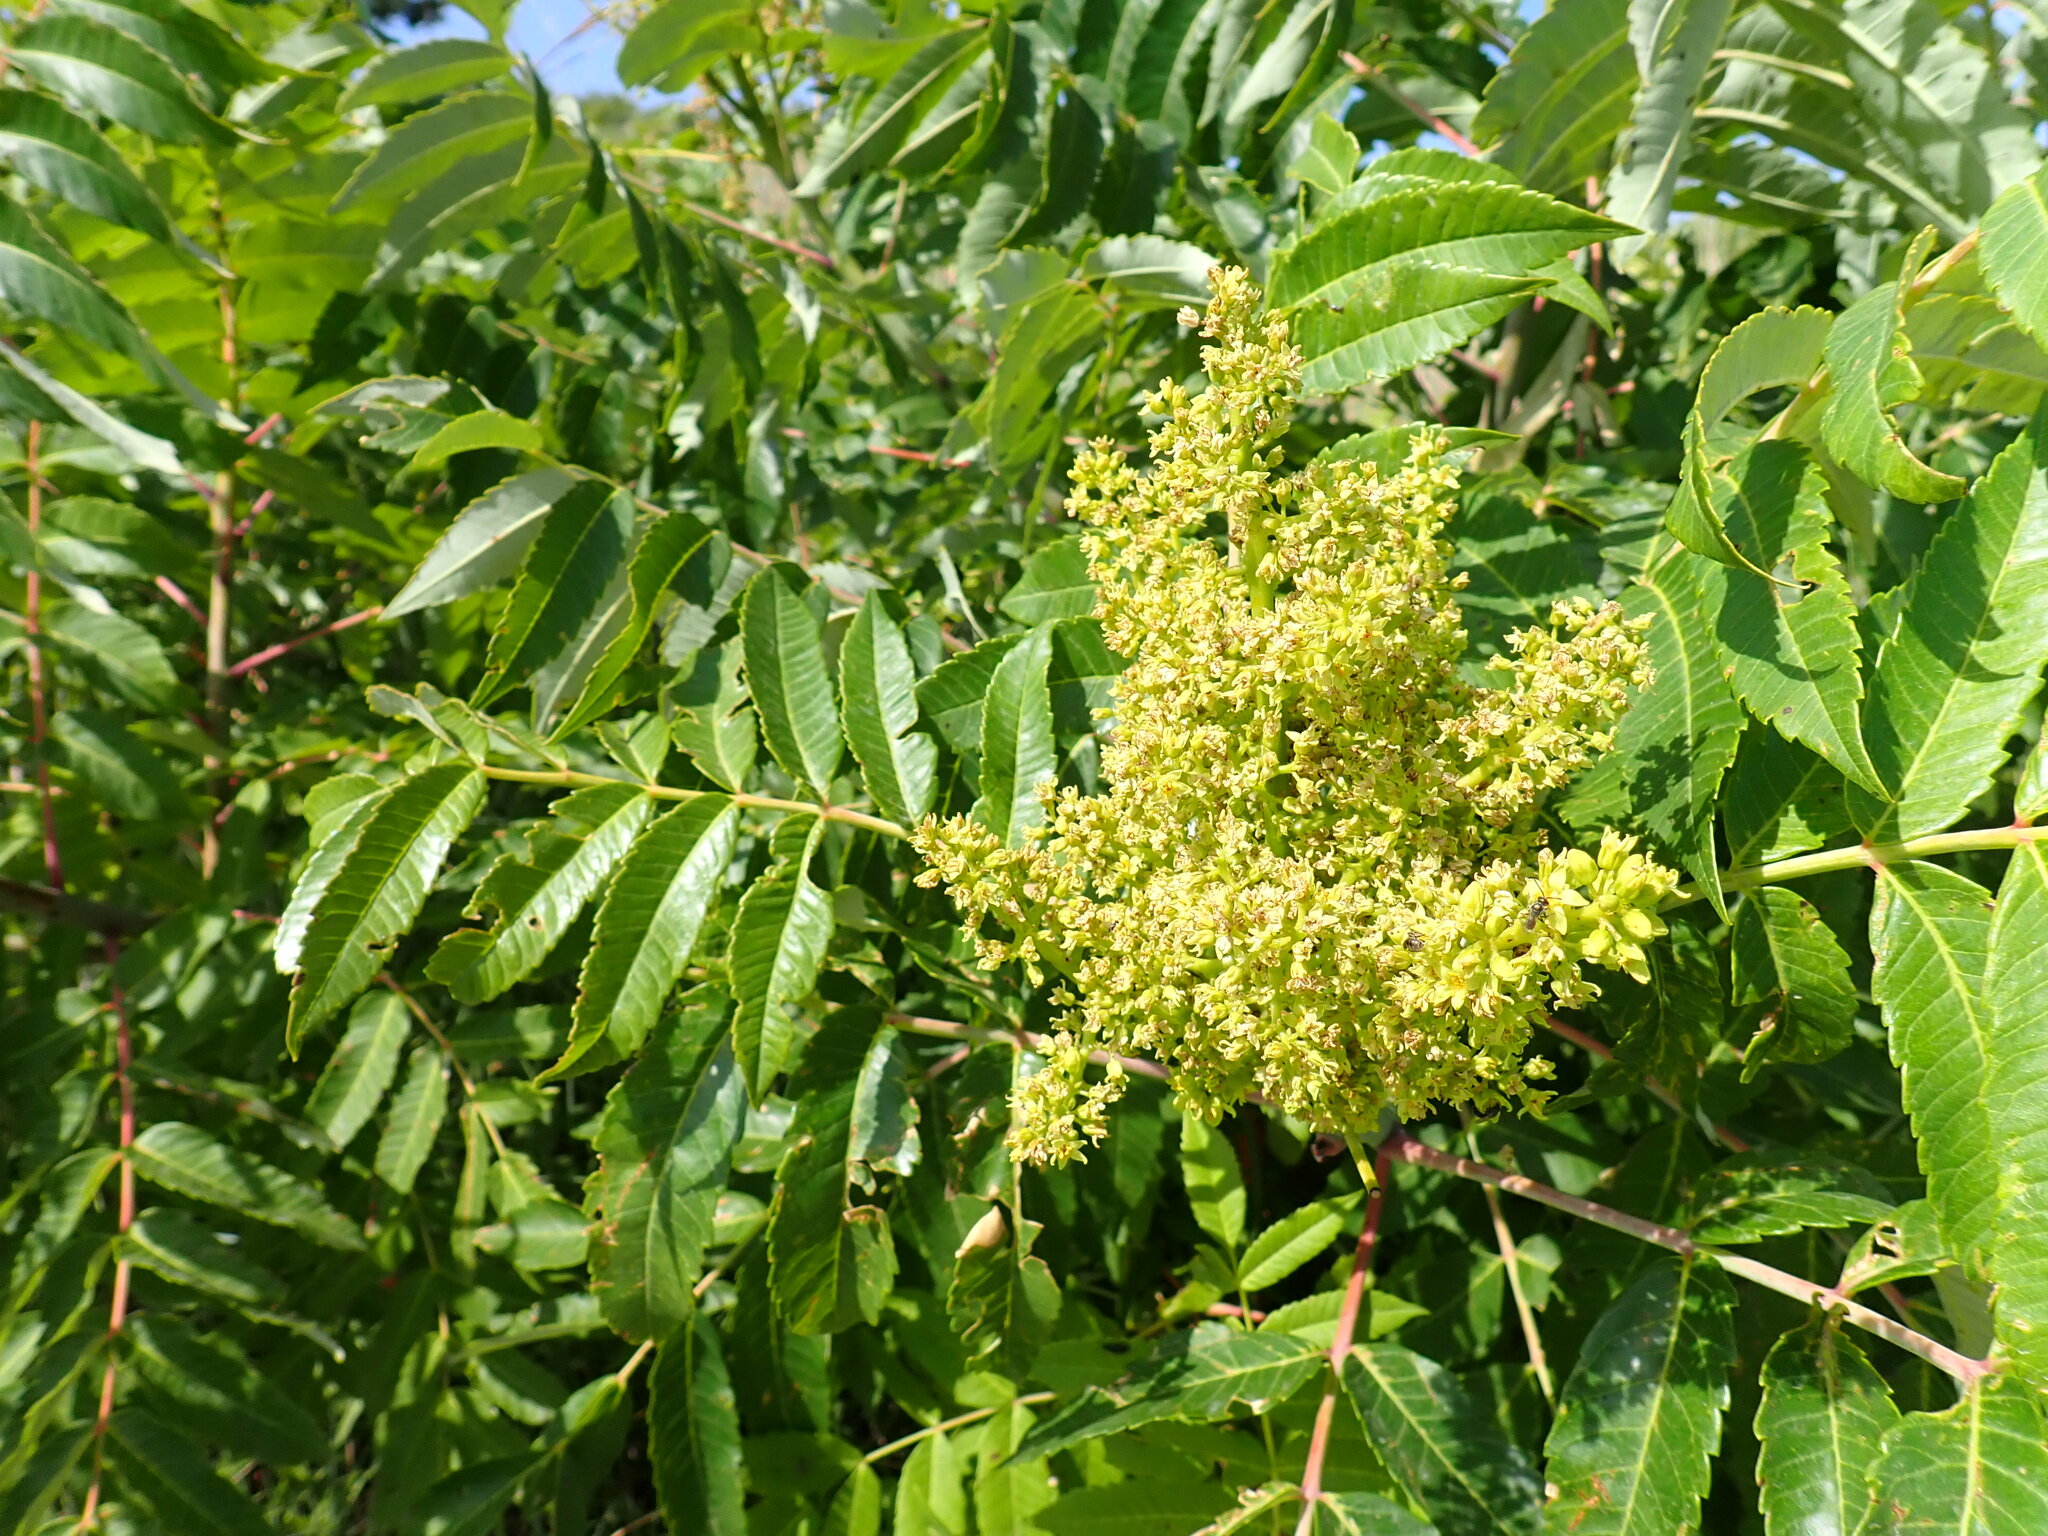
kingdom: Plantae
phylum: Tracheophyta
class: Magnoliopsida
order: Sapindales
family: Anacardiaceae
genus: Rhus
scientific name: Rhus glabra
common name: Scarlet sumac
